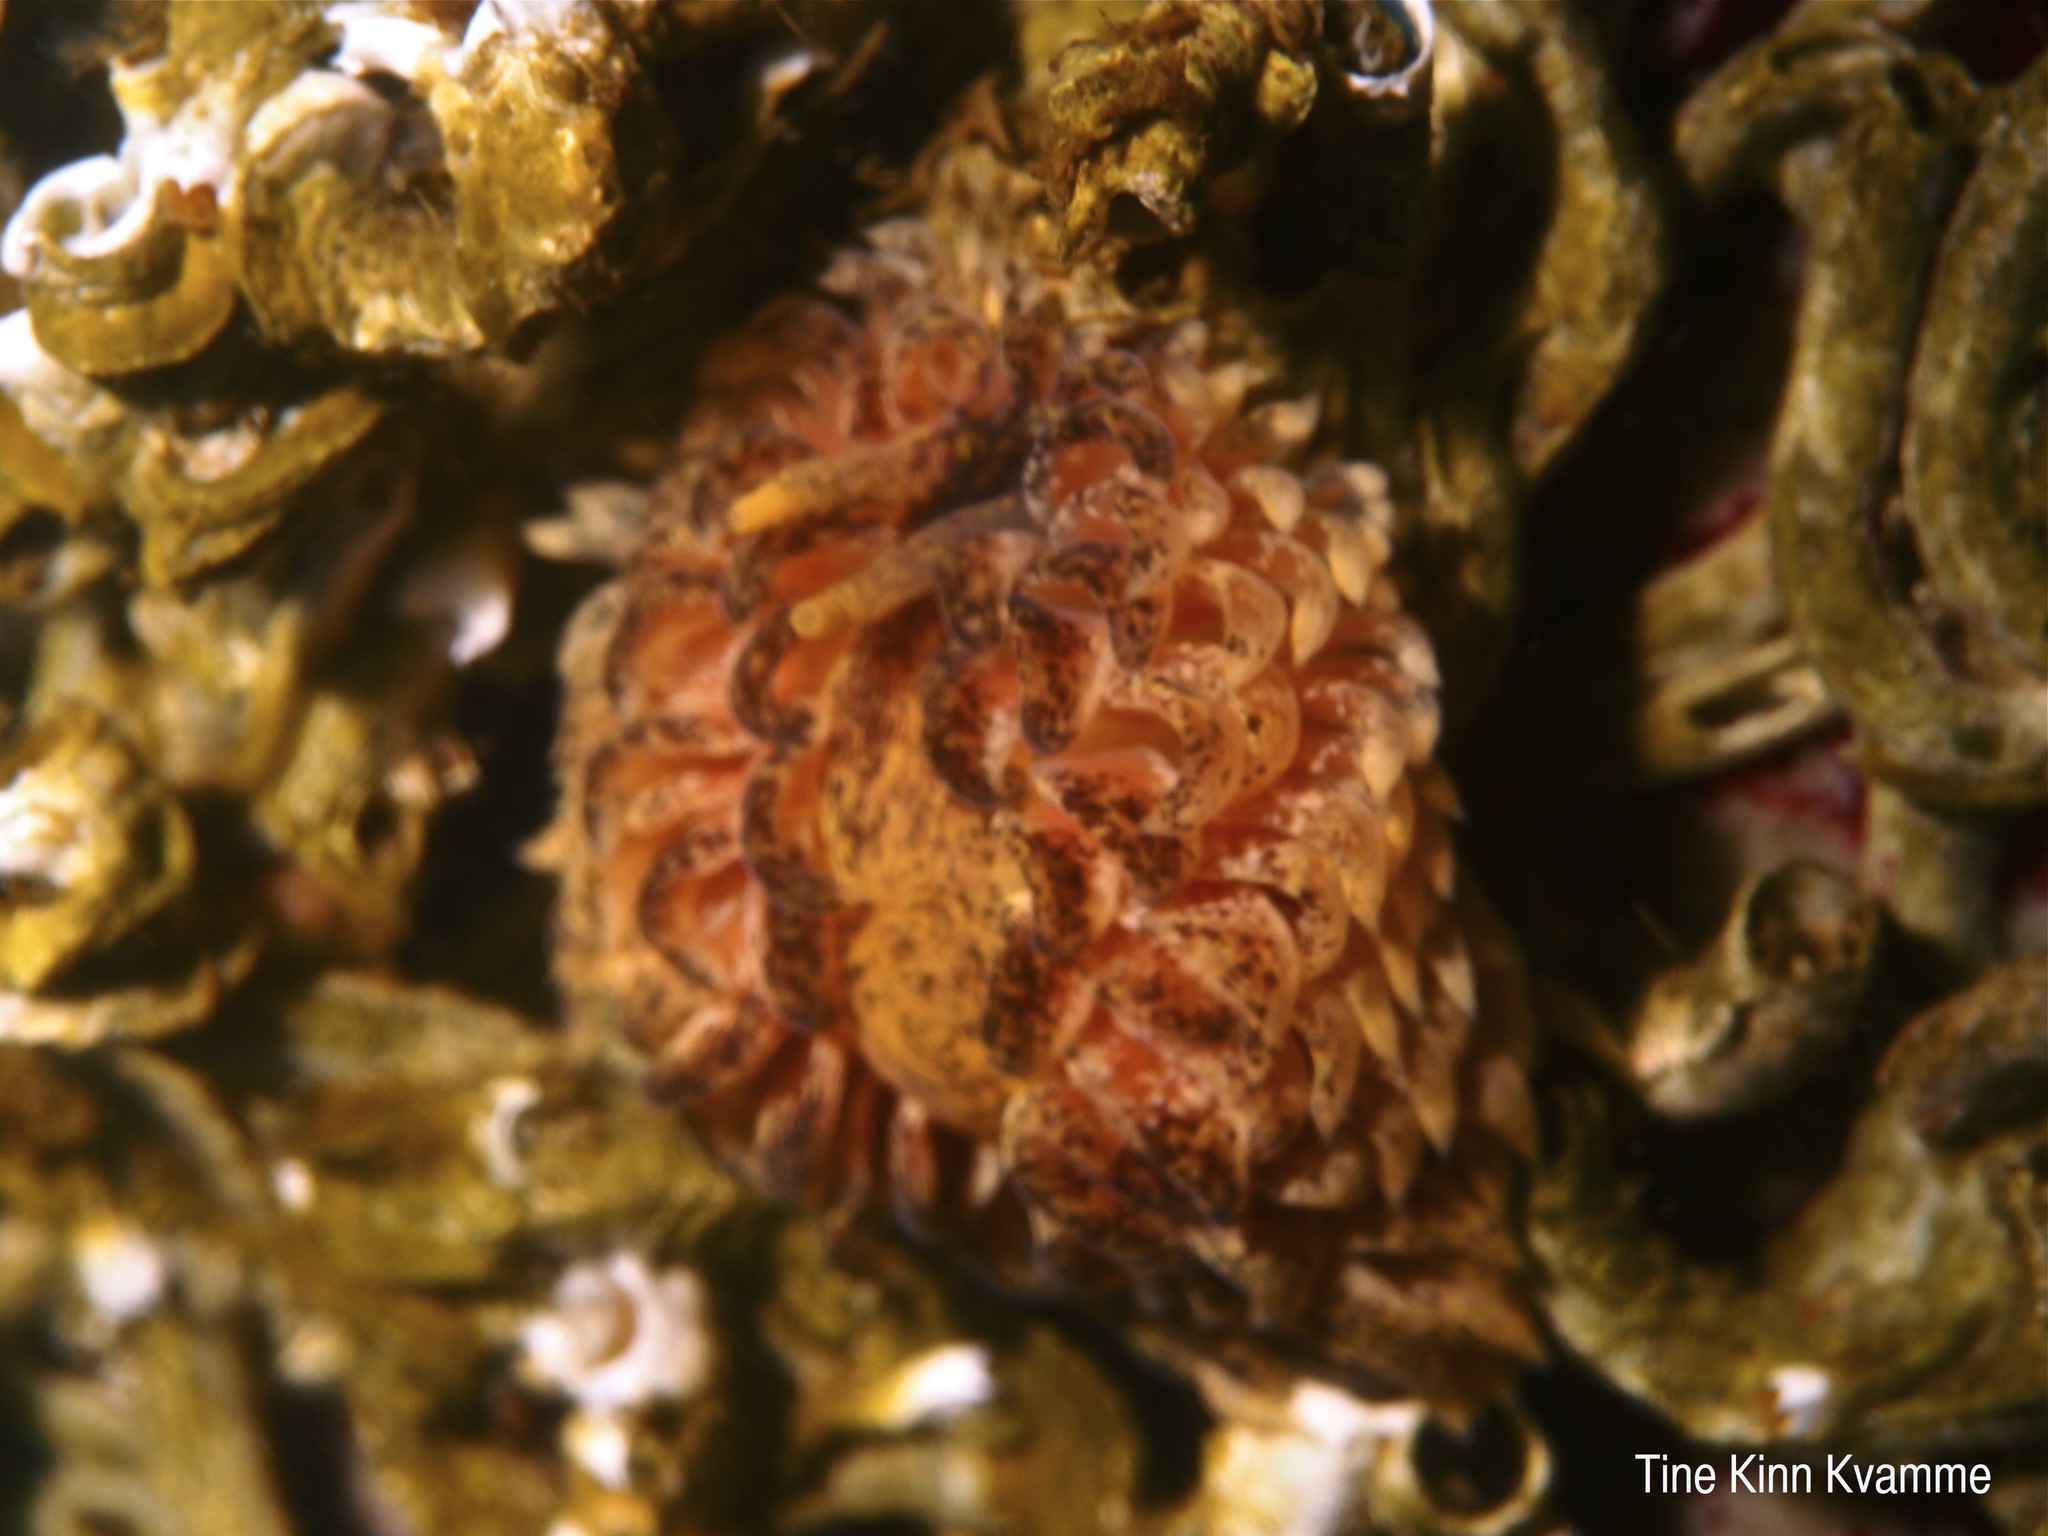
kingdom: Animalia
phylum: Mollusca
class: Gastropoda
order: Nudibranchia
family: Aeolidiidae
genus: Aeolidia
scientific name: Aeolidia papillosa
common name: Common grey sea slug
